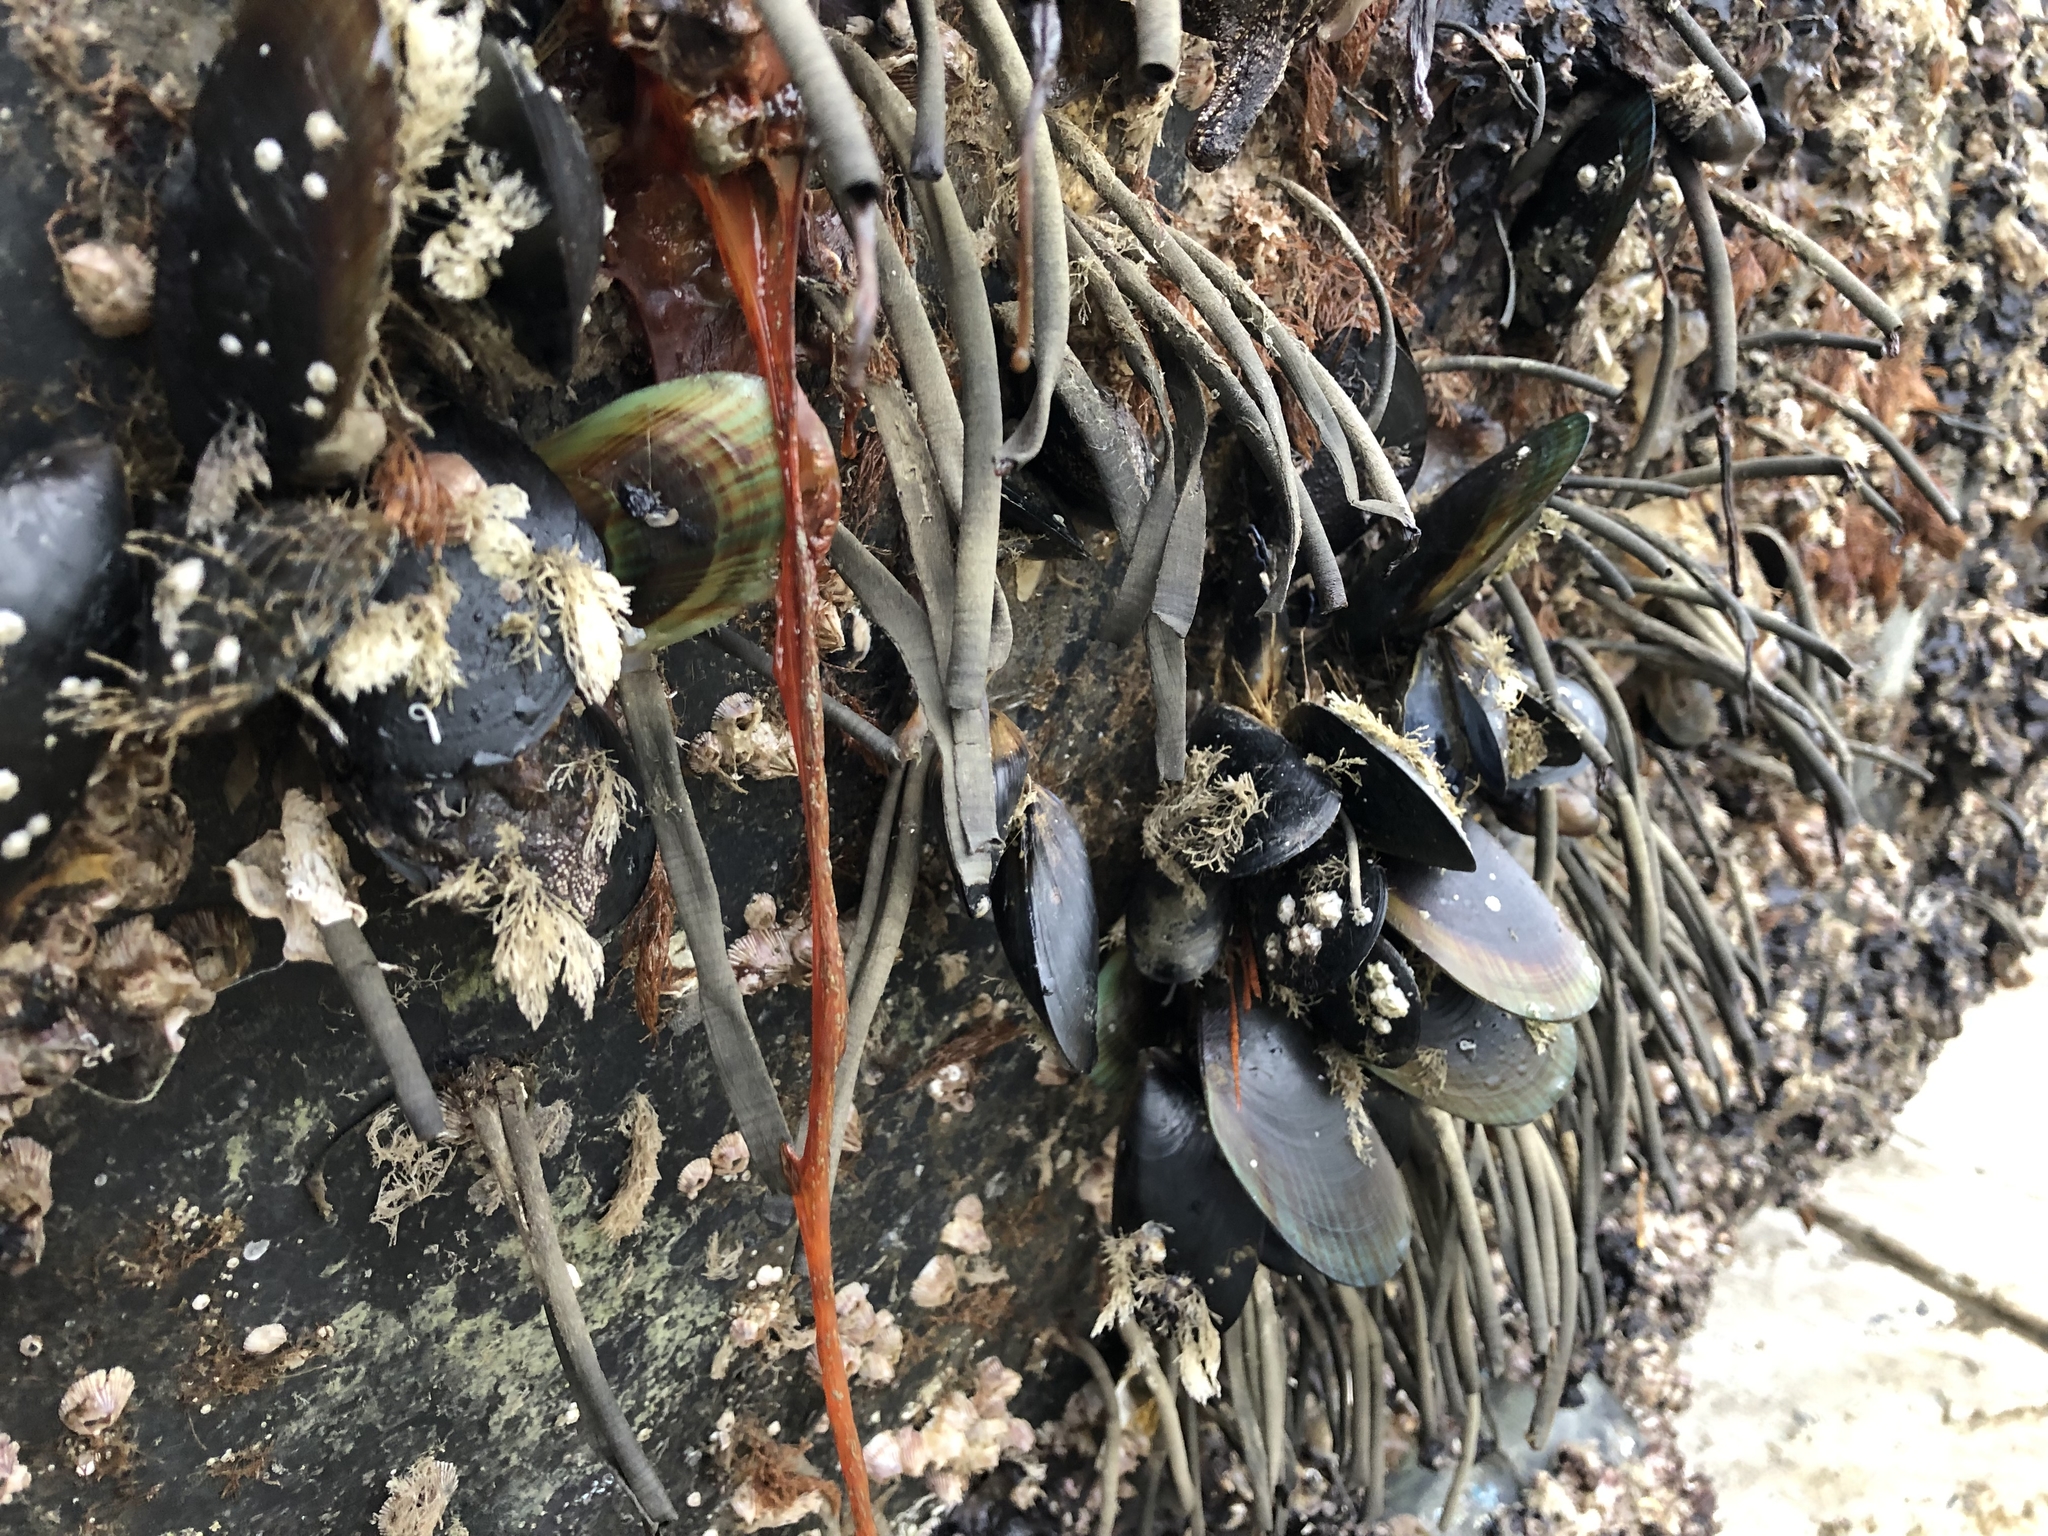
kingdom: Animalia
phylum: Mollusca
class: Bivalvia
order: Mytilida
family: Mytilidae
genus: Perna
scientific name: Perna canaliculus
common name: New zealand greenshelltm
